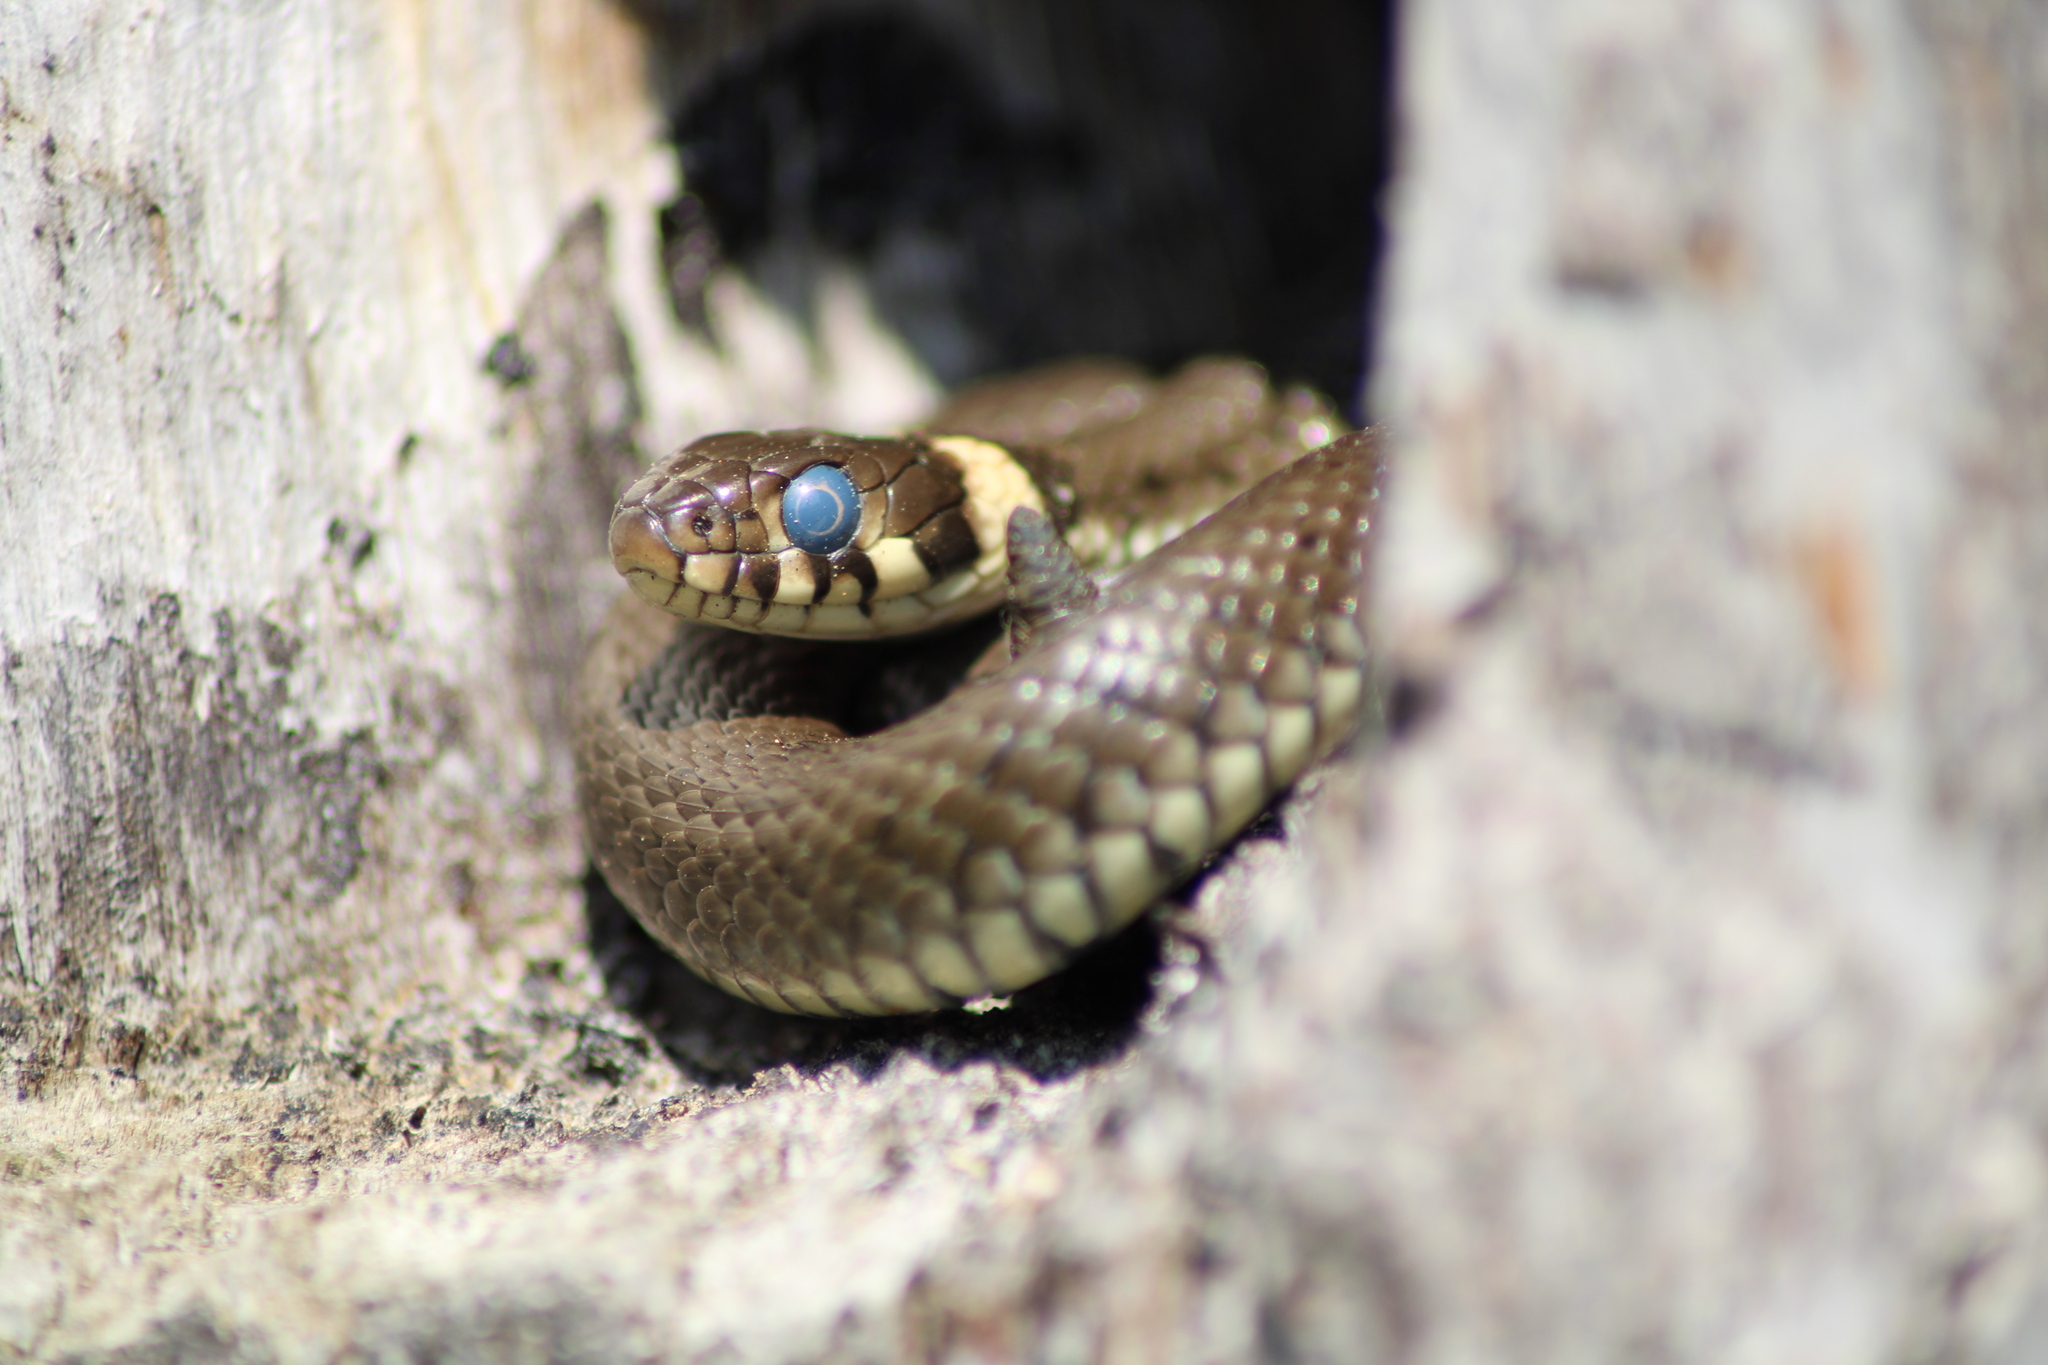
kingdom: Animalia
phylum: Chordata
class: Squamata
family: Colubridae
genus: Natrix
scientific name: Natrix natrix
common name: Grass snake
